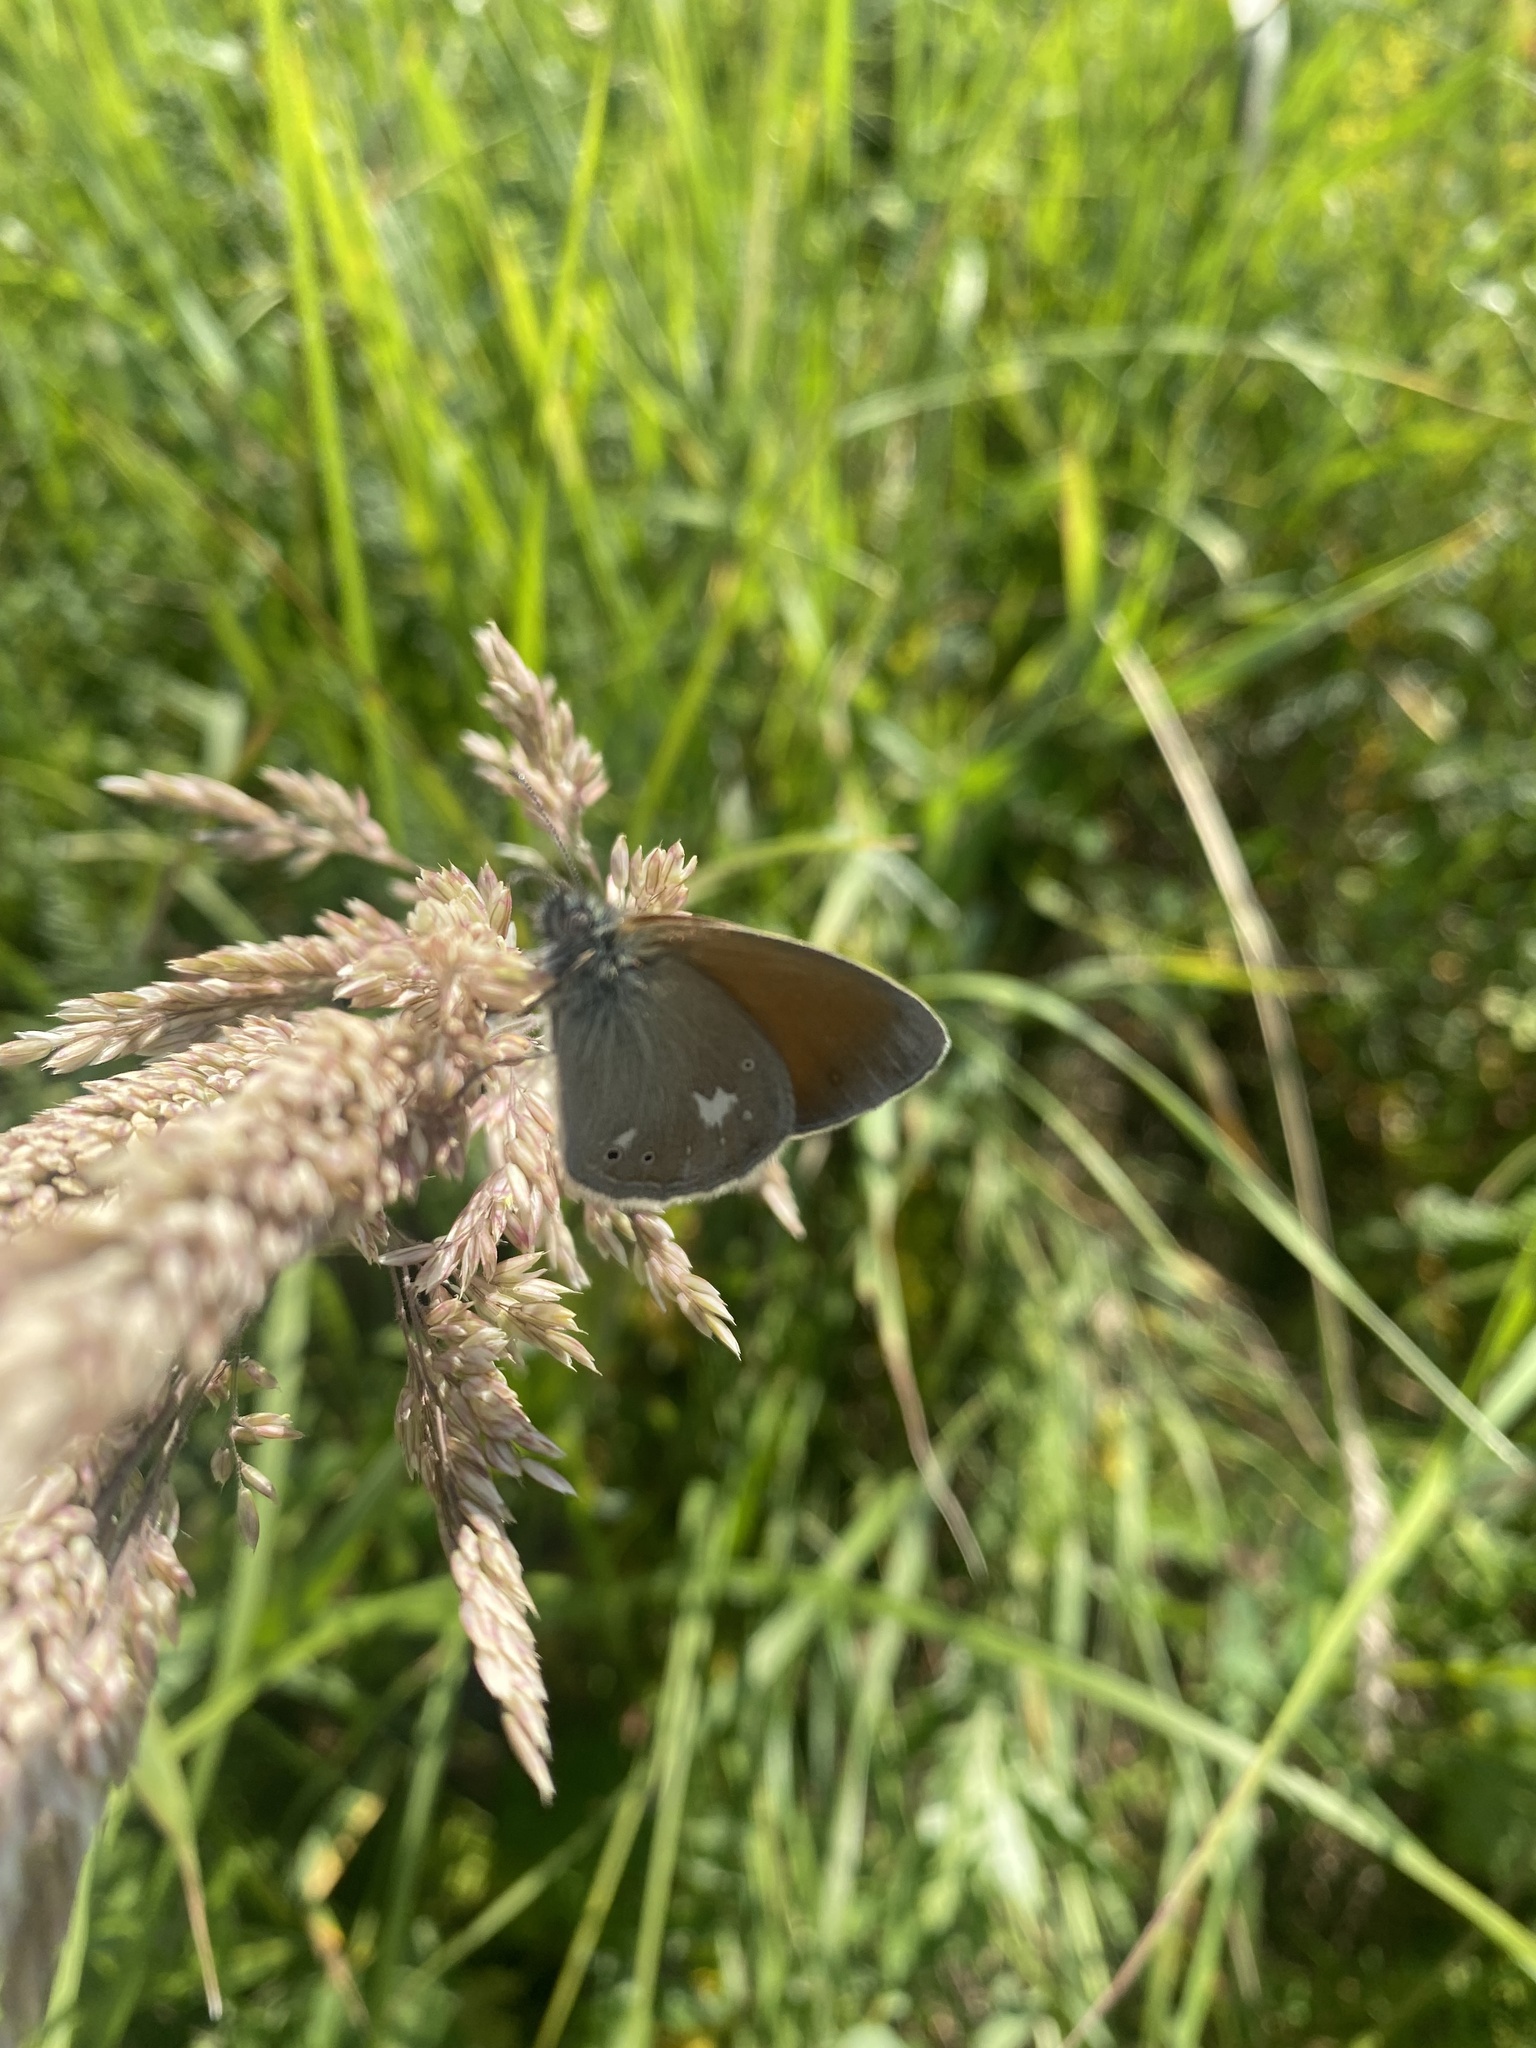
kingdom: Animalia
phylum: Arthropoda
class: Insecta
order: Lepidoptera
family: Nymphalidae
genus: Coenonympha
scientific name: Coenonympha iphis
